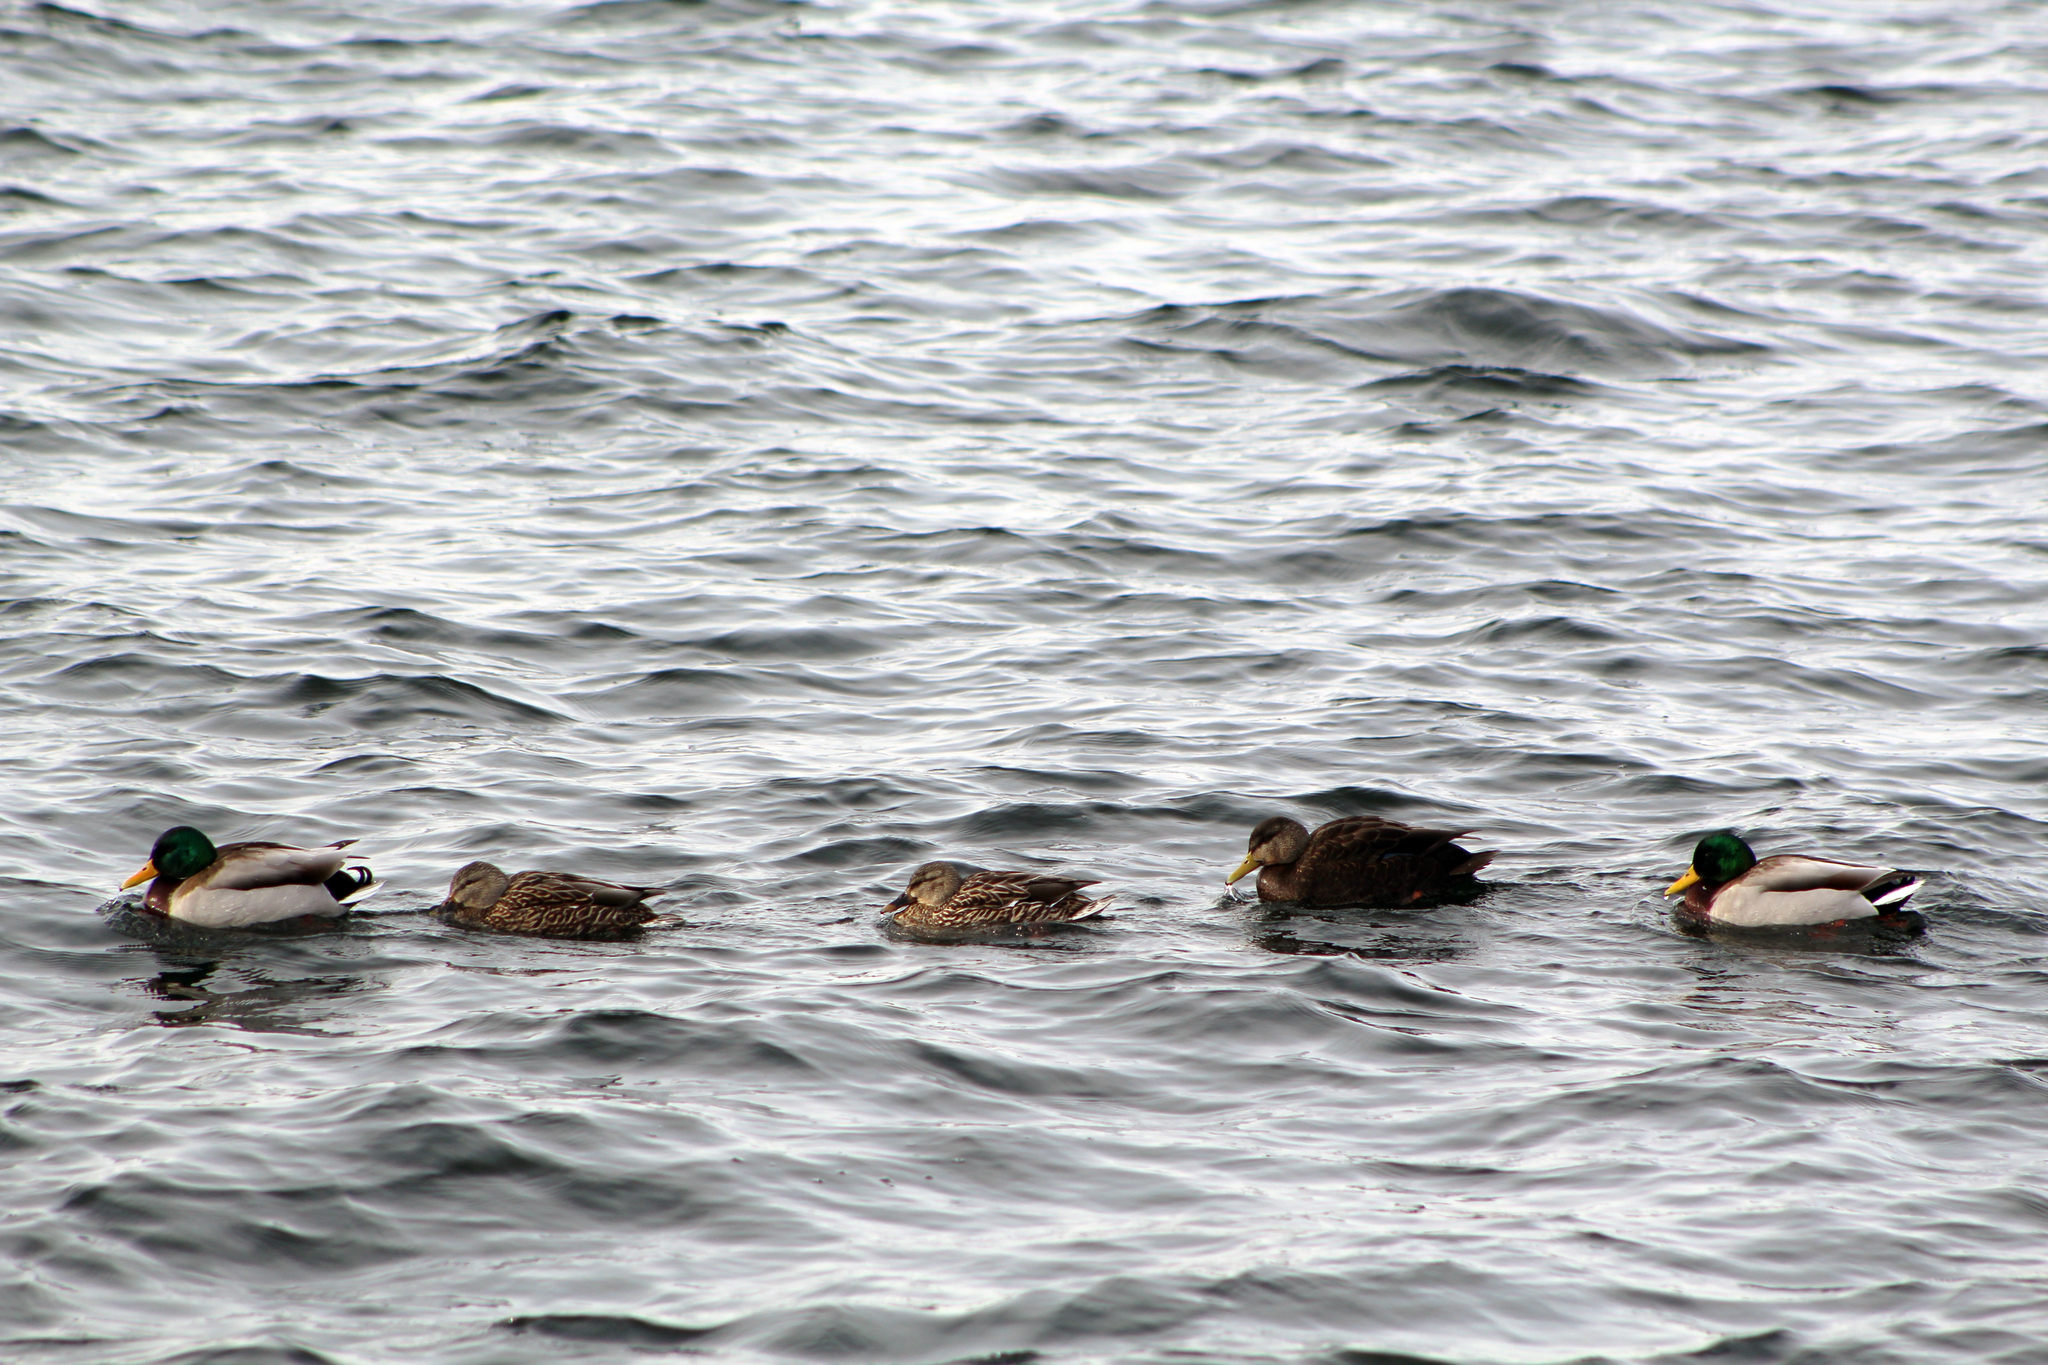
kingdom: Animalia
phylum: Chordata
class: Aves
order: Anseriformes
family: Anatidae
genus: Anas
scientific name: Anas platyrhynchos
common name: Mallard
